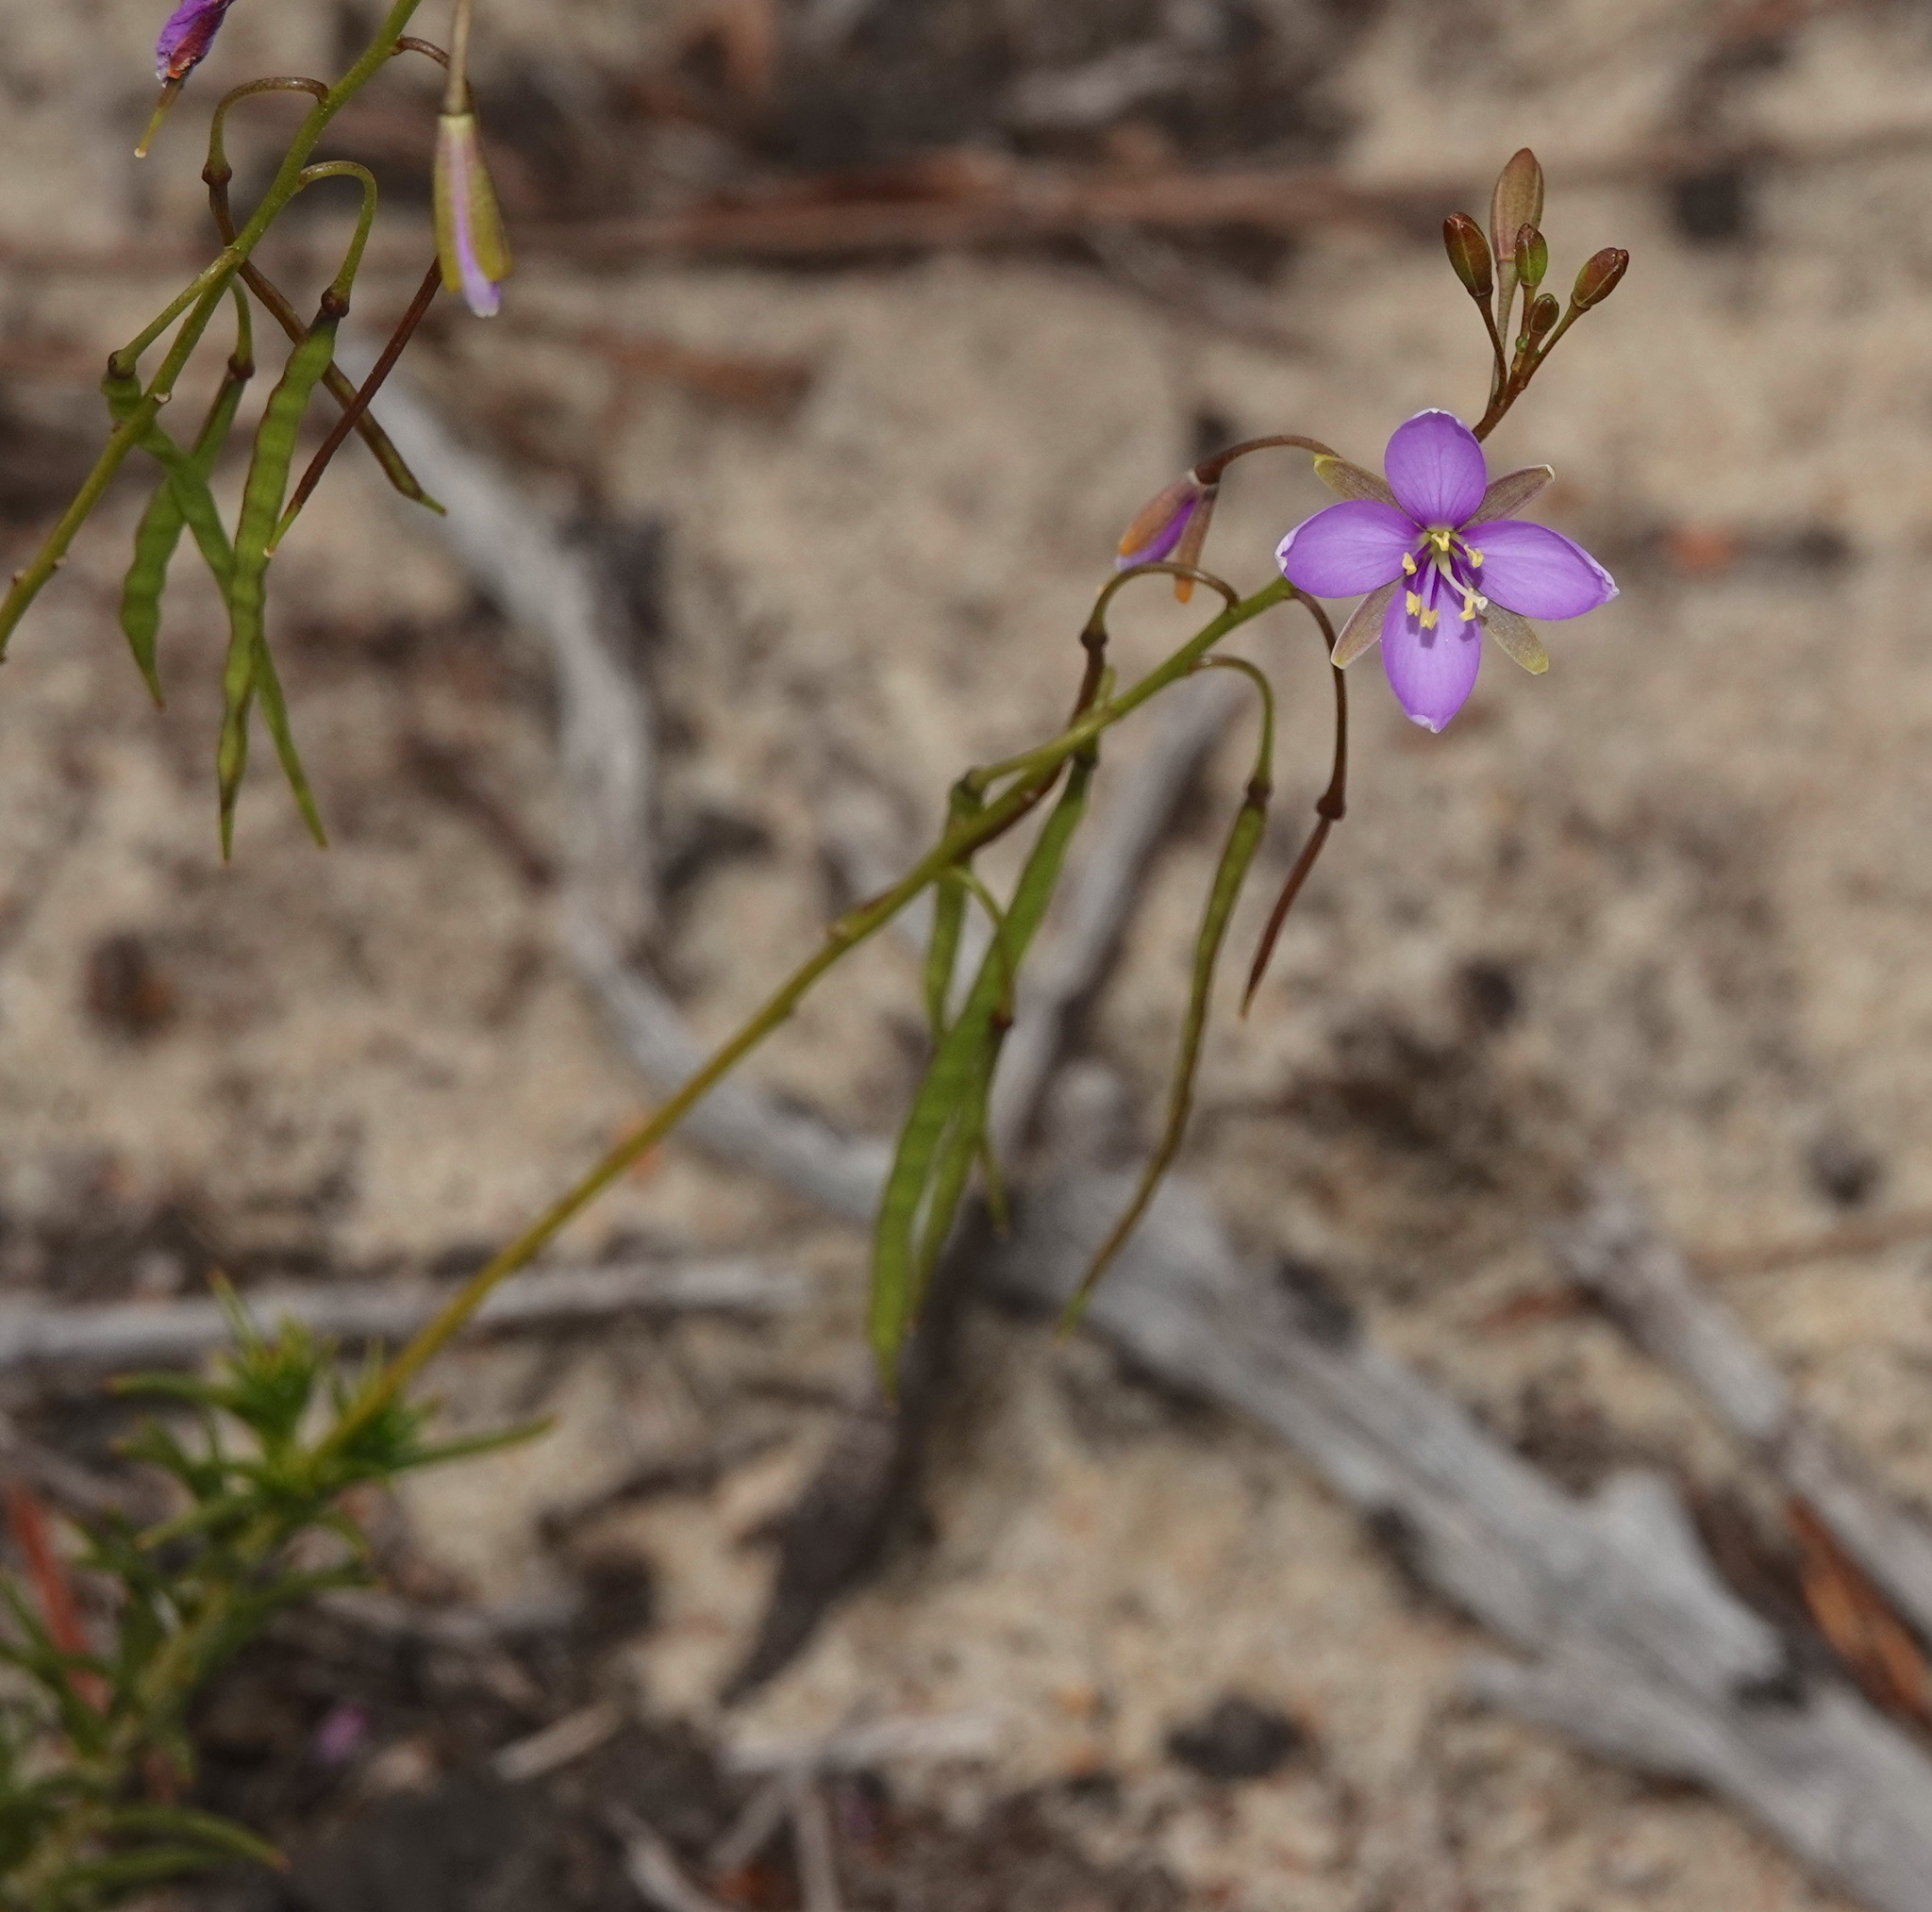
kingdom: Plantae
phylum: Tracheophyta
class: Magnoliopsida
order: Brassicales
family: Brassicaceae
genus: Heliophila
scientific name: Heliophila subulata
